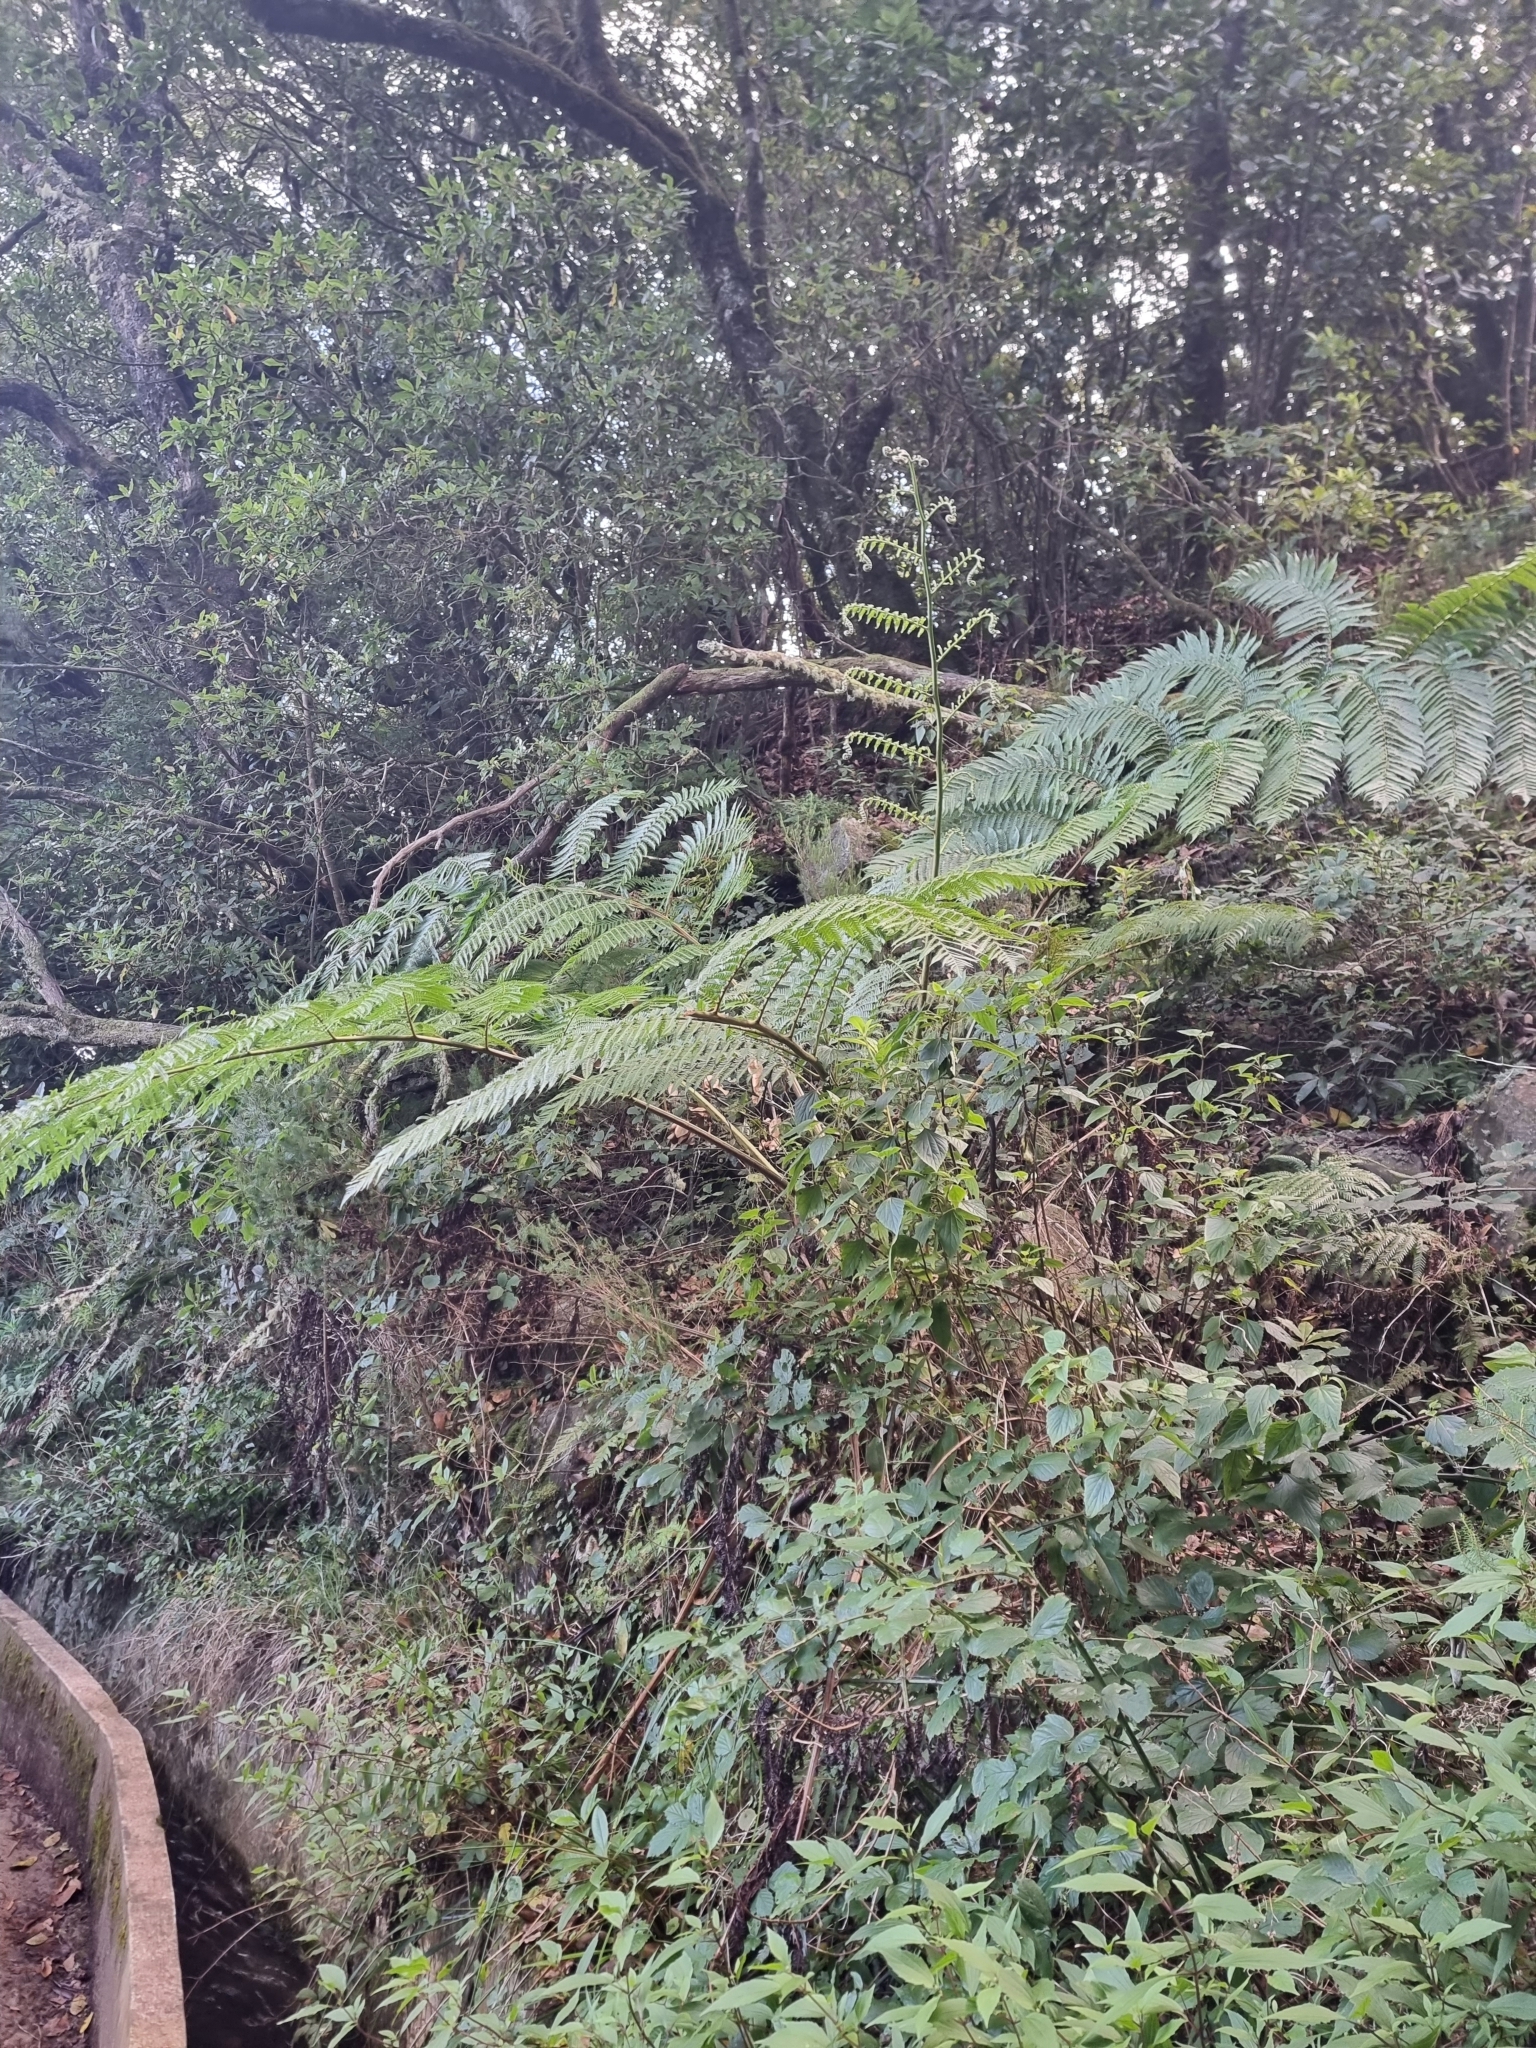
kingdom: Plantae
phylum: Tracheophyta
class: Polypodiopsida
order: Cyatheales
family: Cyatheaceae
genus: Sphaeropteris
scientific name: Sphaeropteris cooperi
